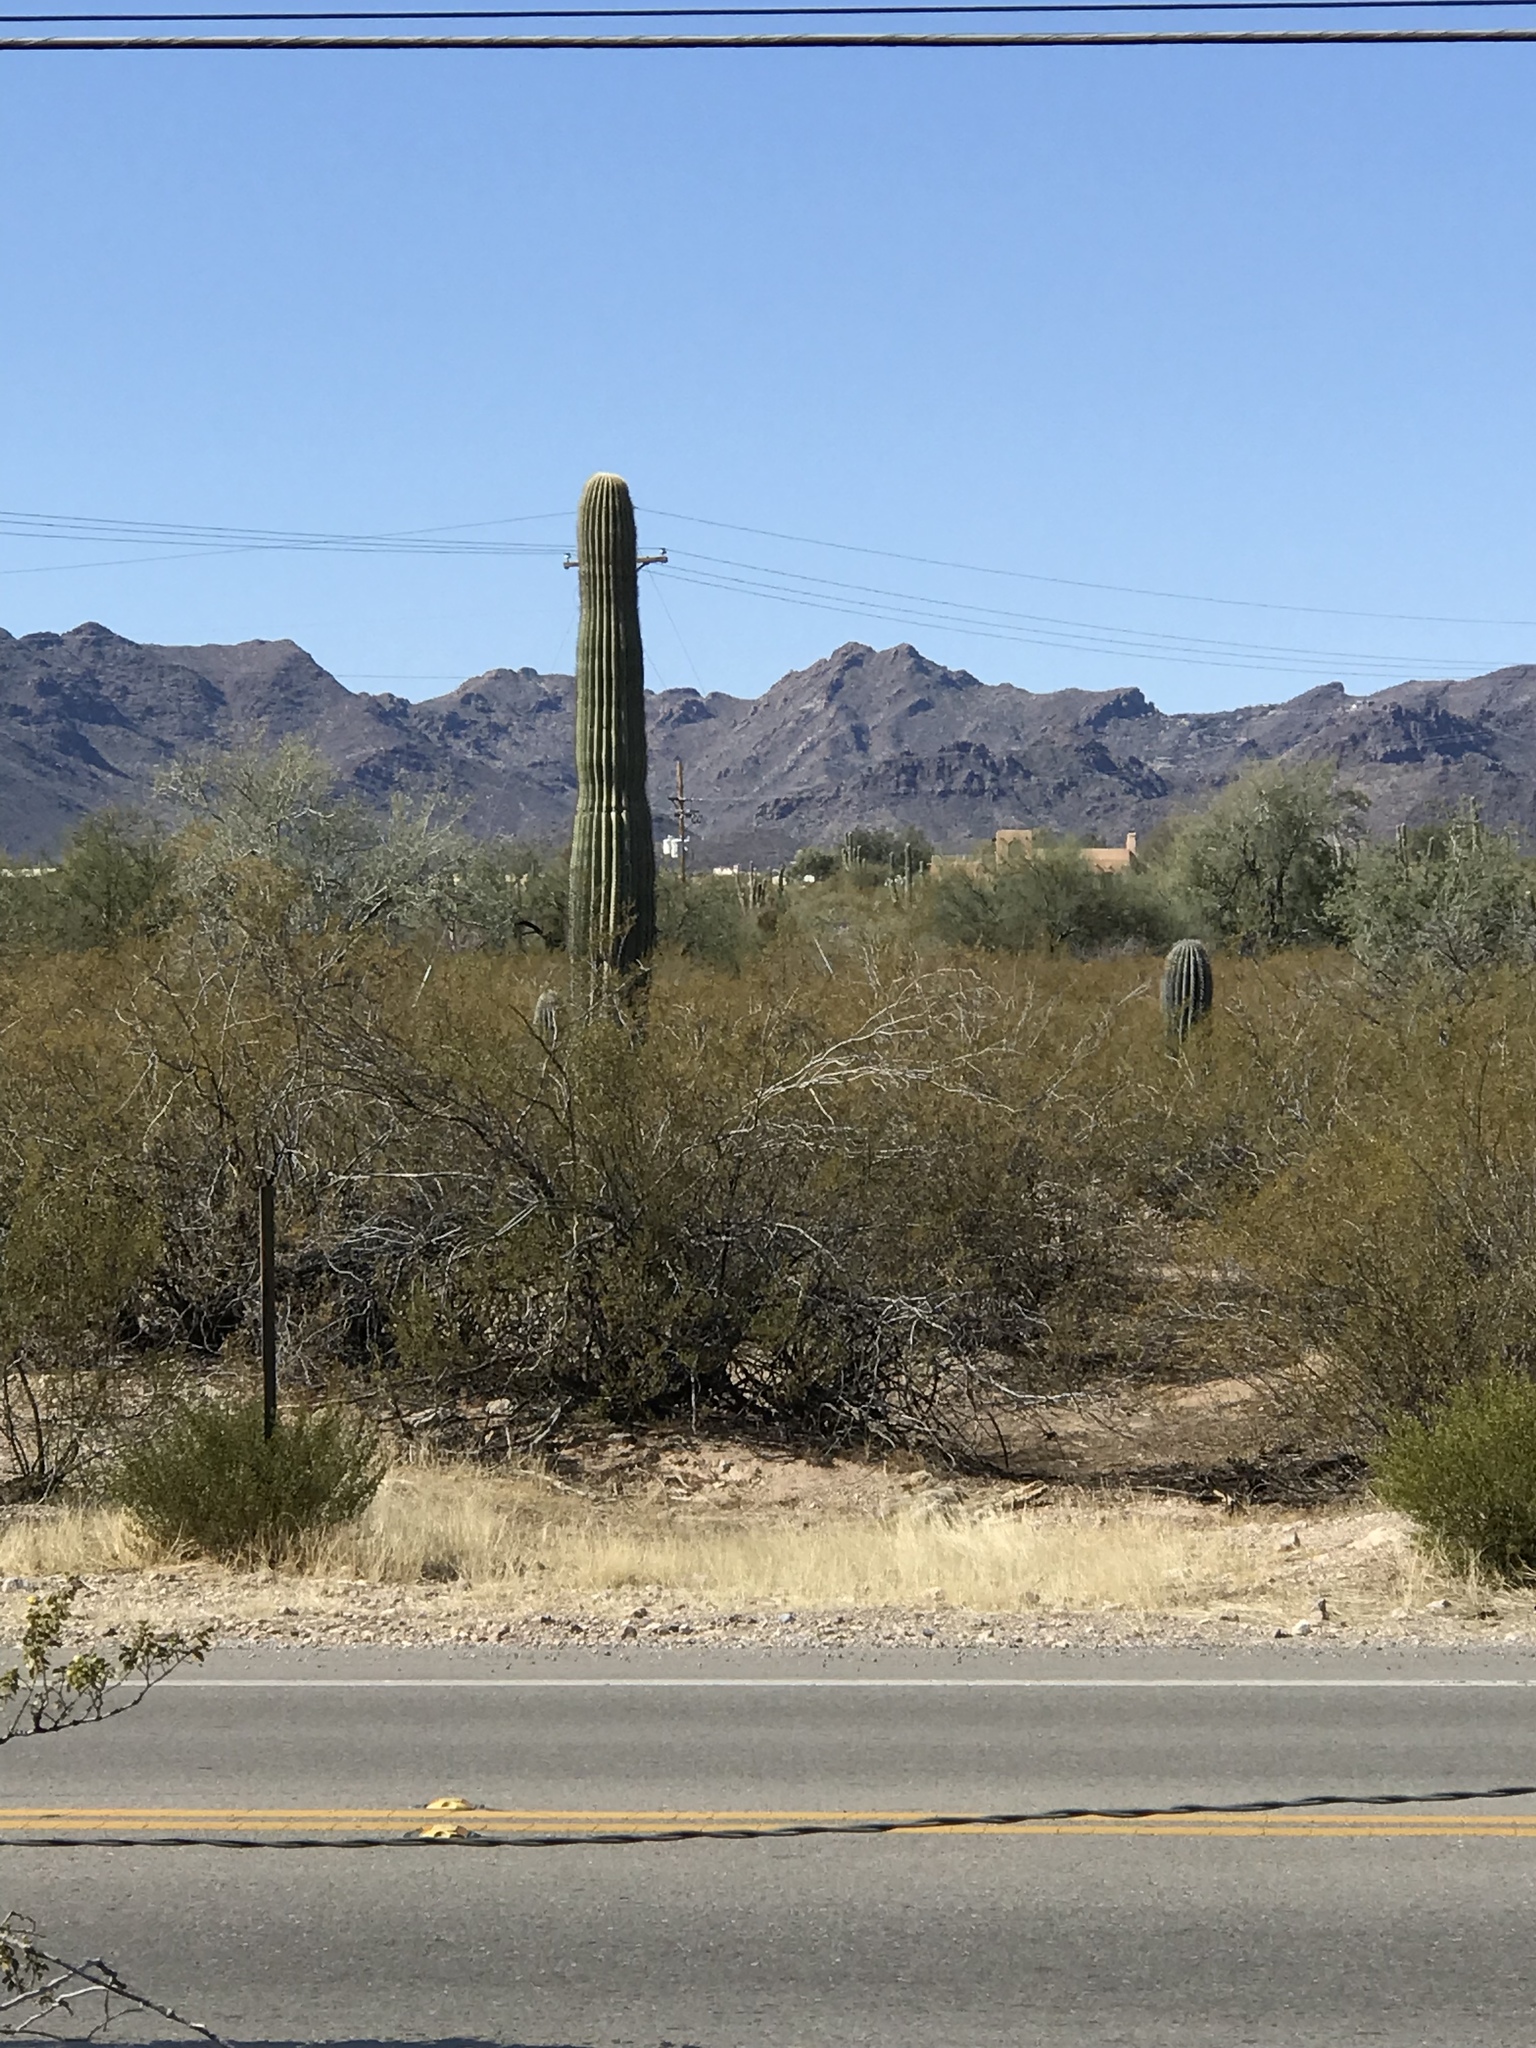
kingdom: Plantae
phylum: Tracheophyta
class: Magnoliopsida
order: Caryophyllales
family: Cactaceae
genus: Carnegiea
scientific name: Carnegiea gigantea
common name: Saguaro
